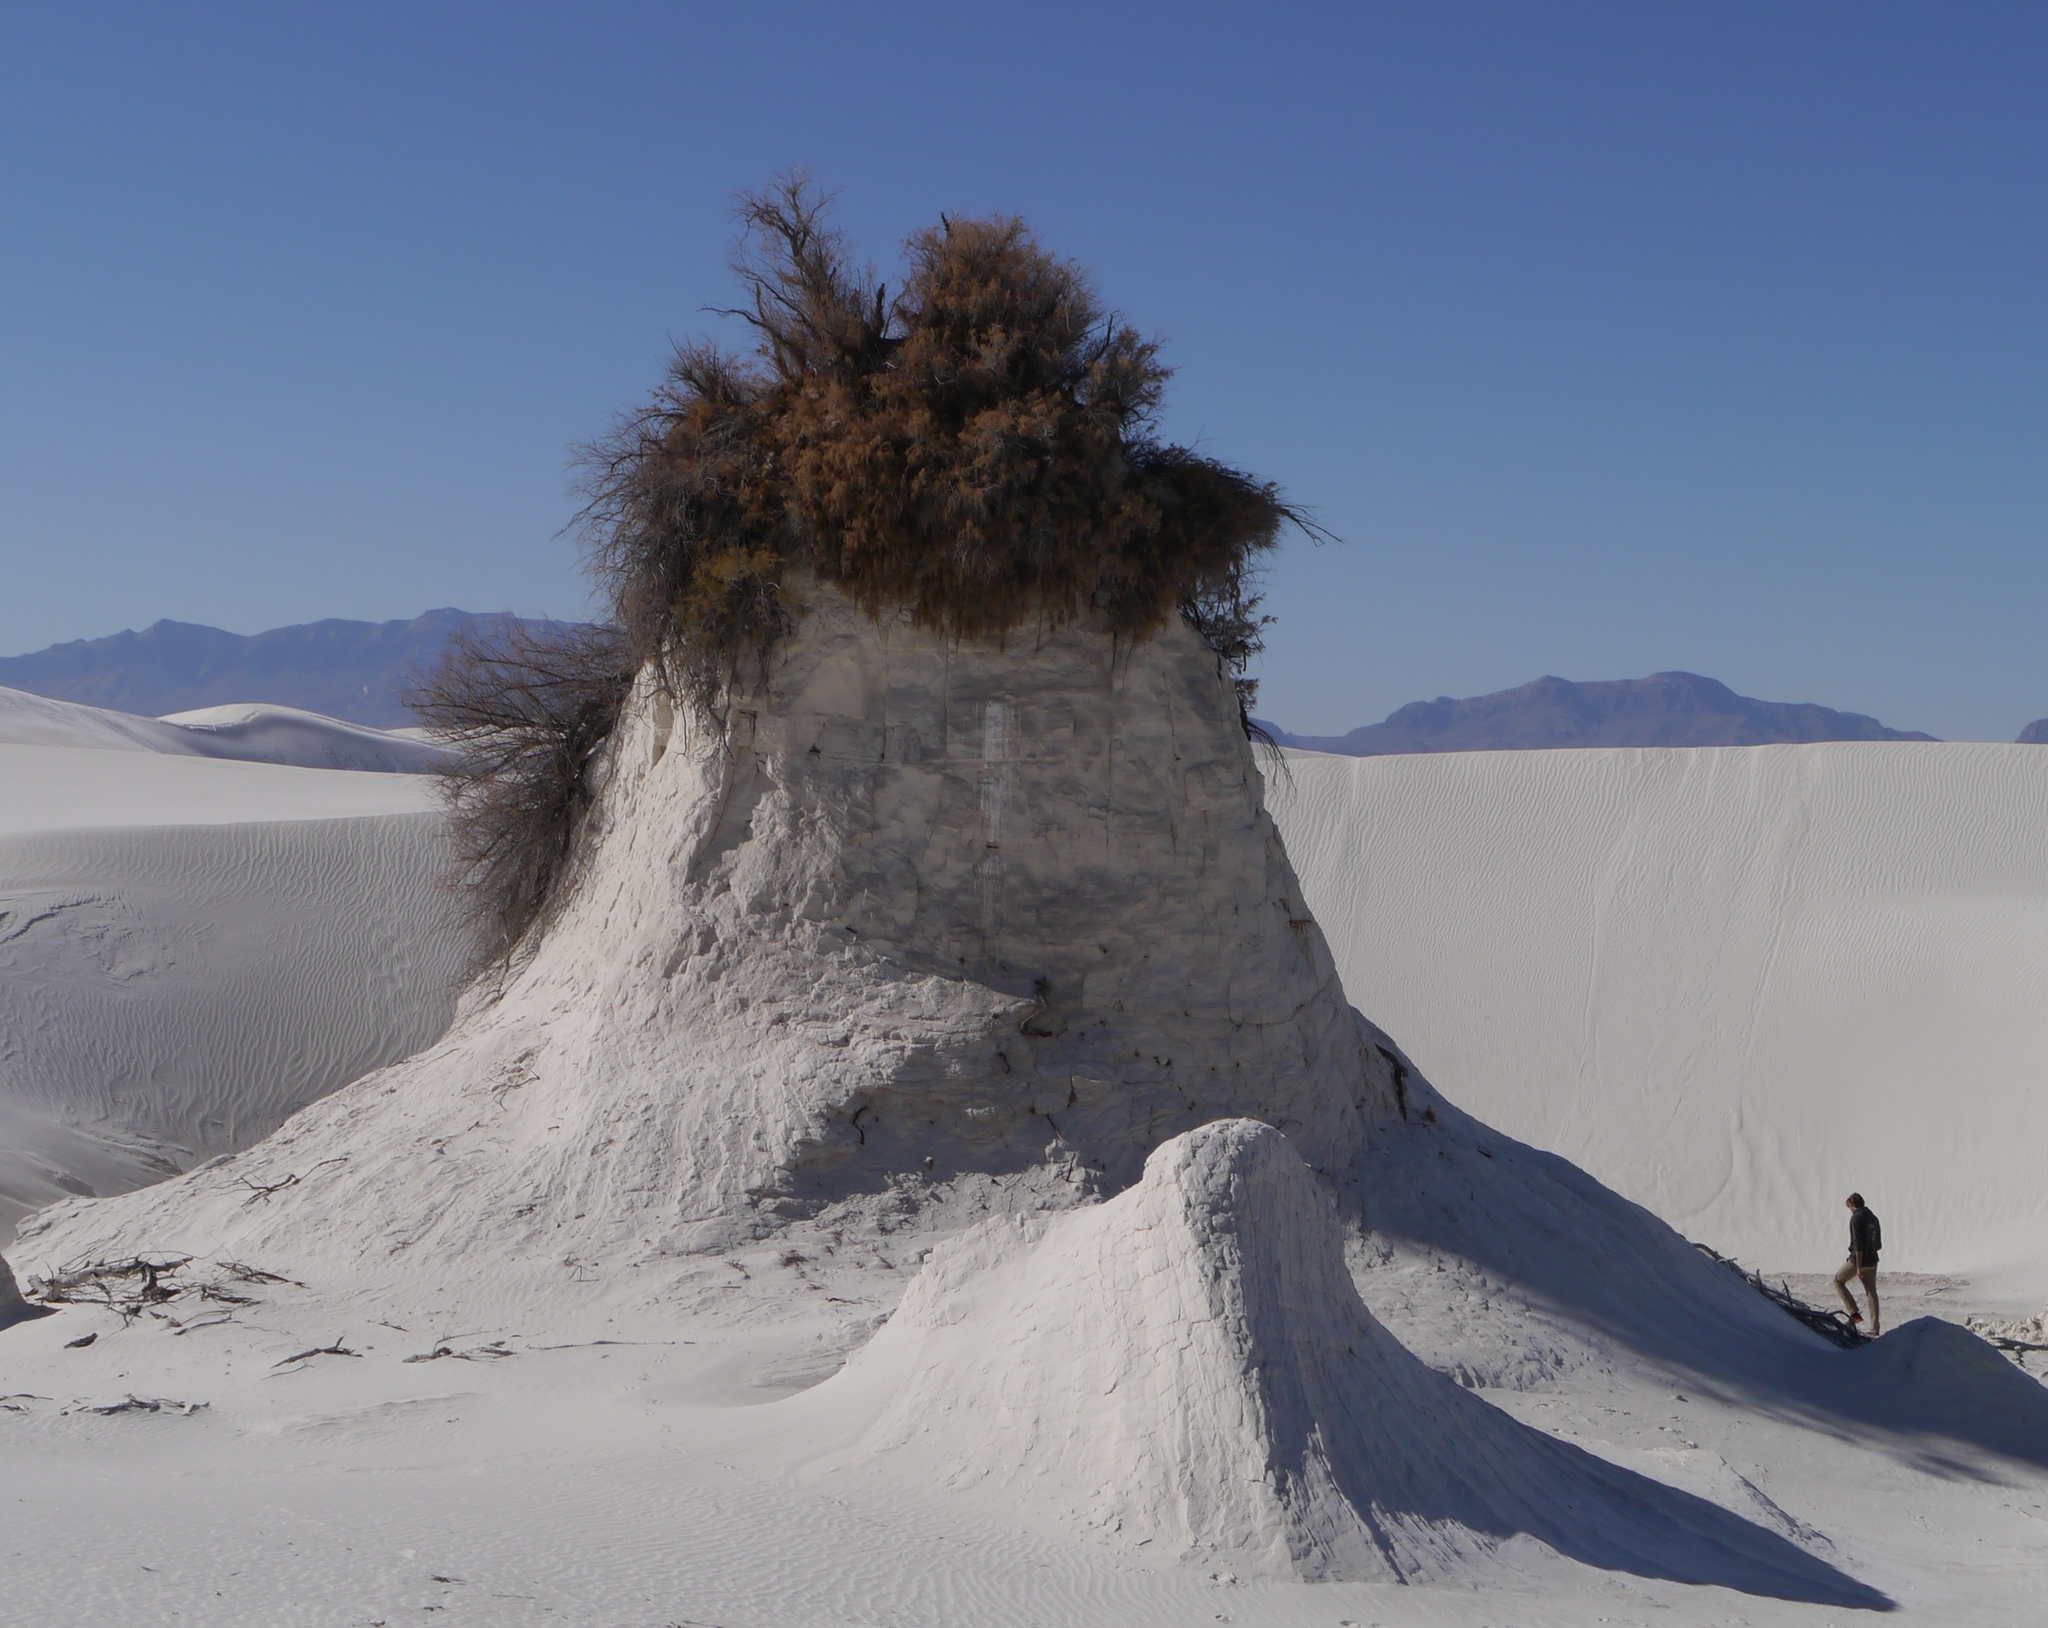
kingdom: Plantae
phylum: Tracheophyta
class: Magnoliopsida
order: Caryophyllales
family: Tamaricaceae
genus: Tamarix
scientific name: Tamarix
